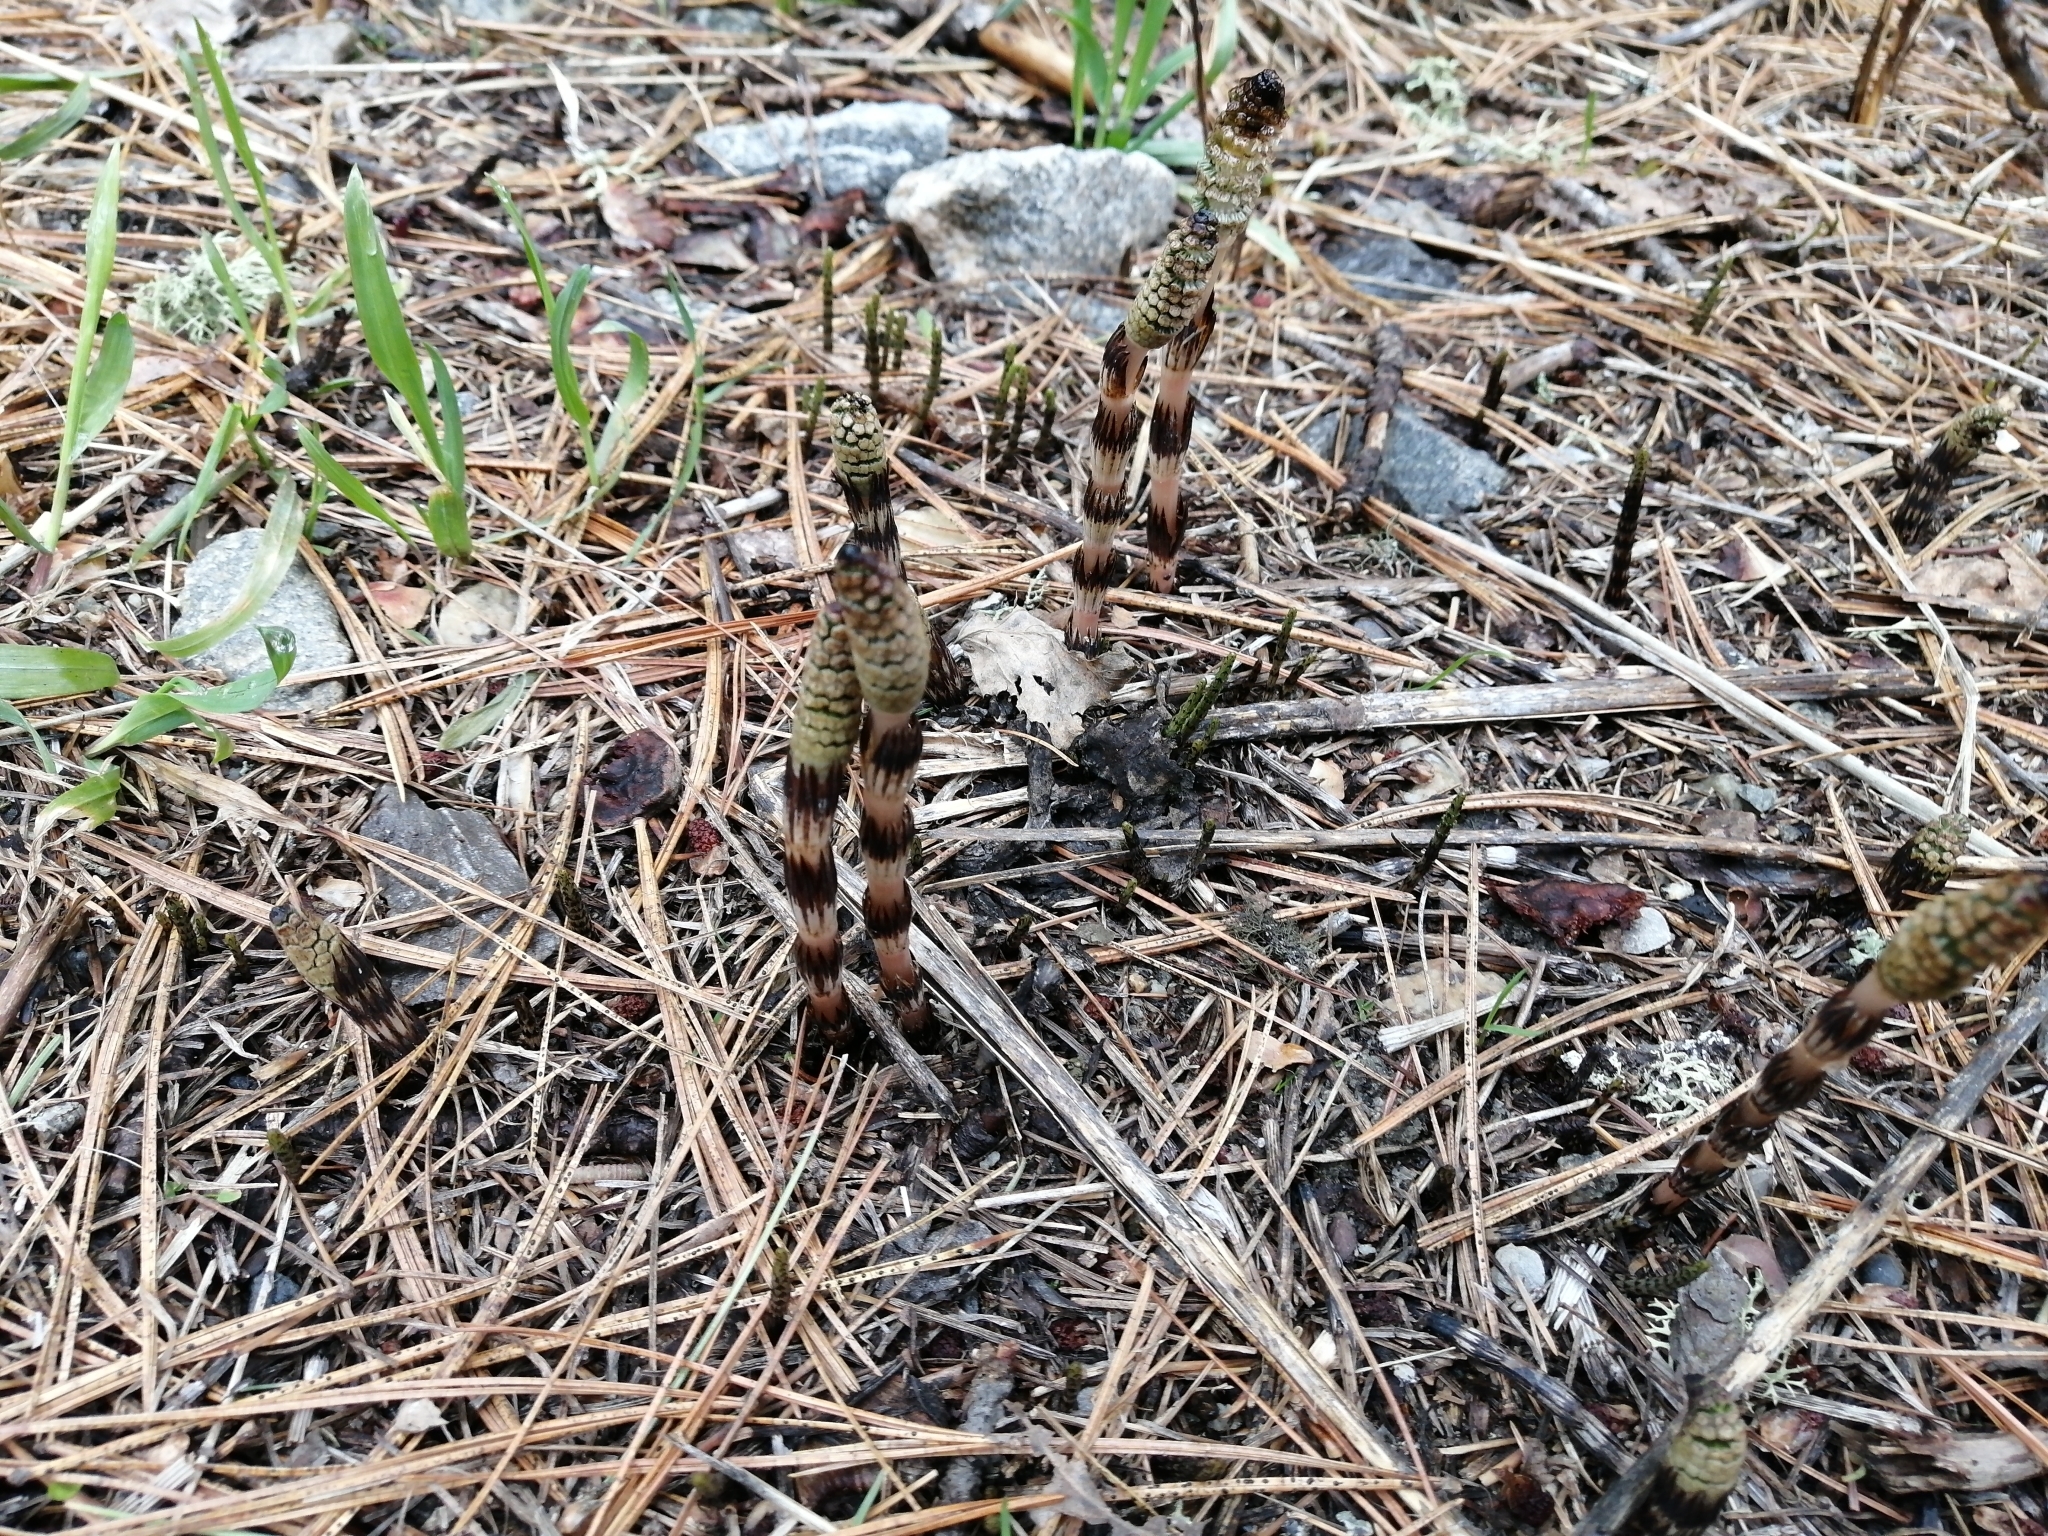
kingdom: Plantae
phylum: Tracheophyta
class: Polypodiopsida
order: Equisetales
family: Equisetaceae
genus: Equisetum
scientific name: Equisetum arvense
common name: Field horsetail
